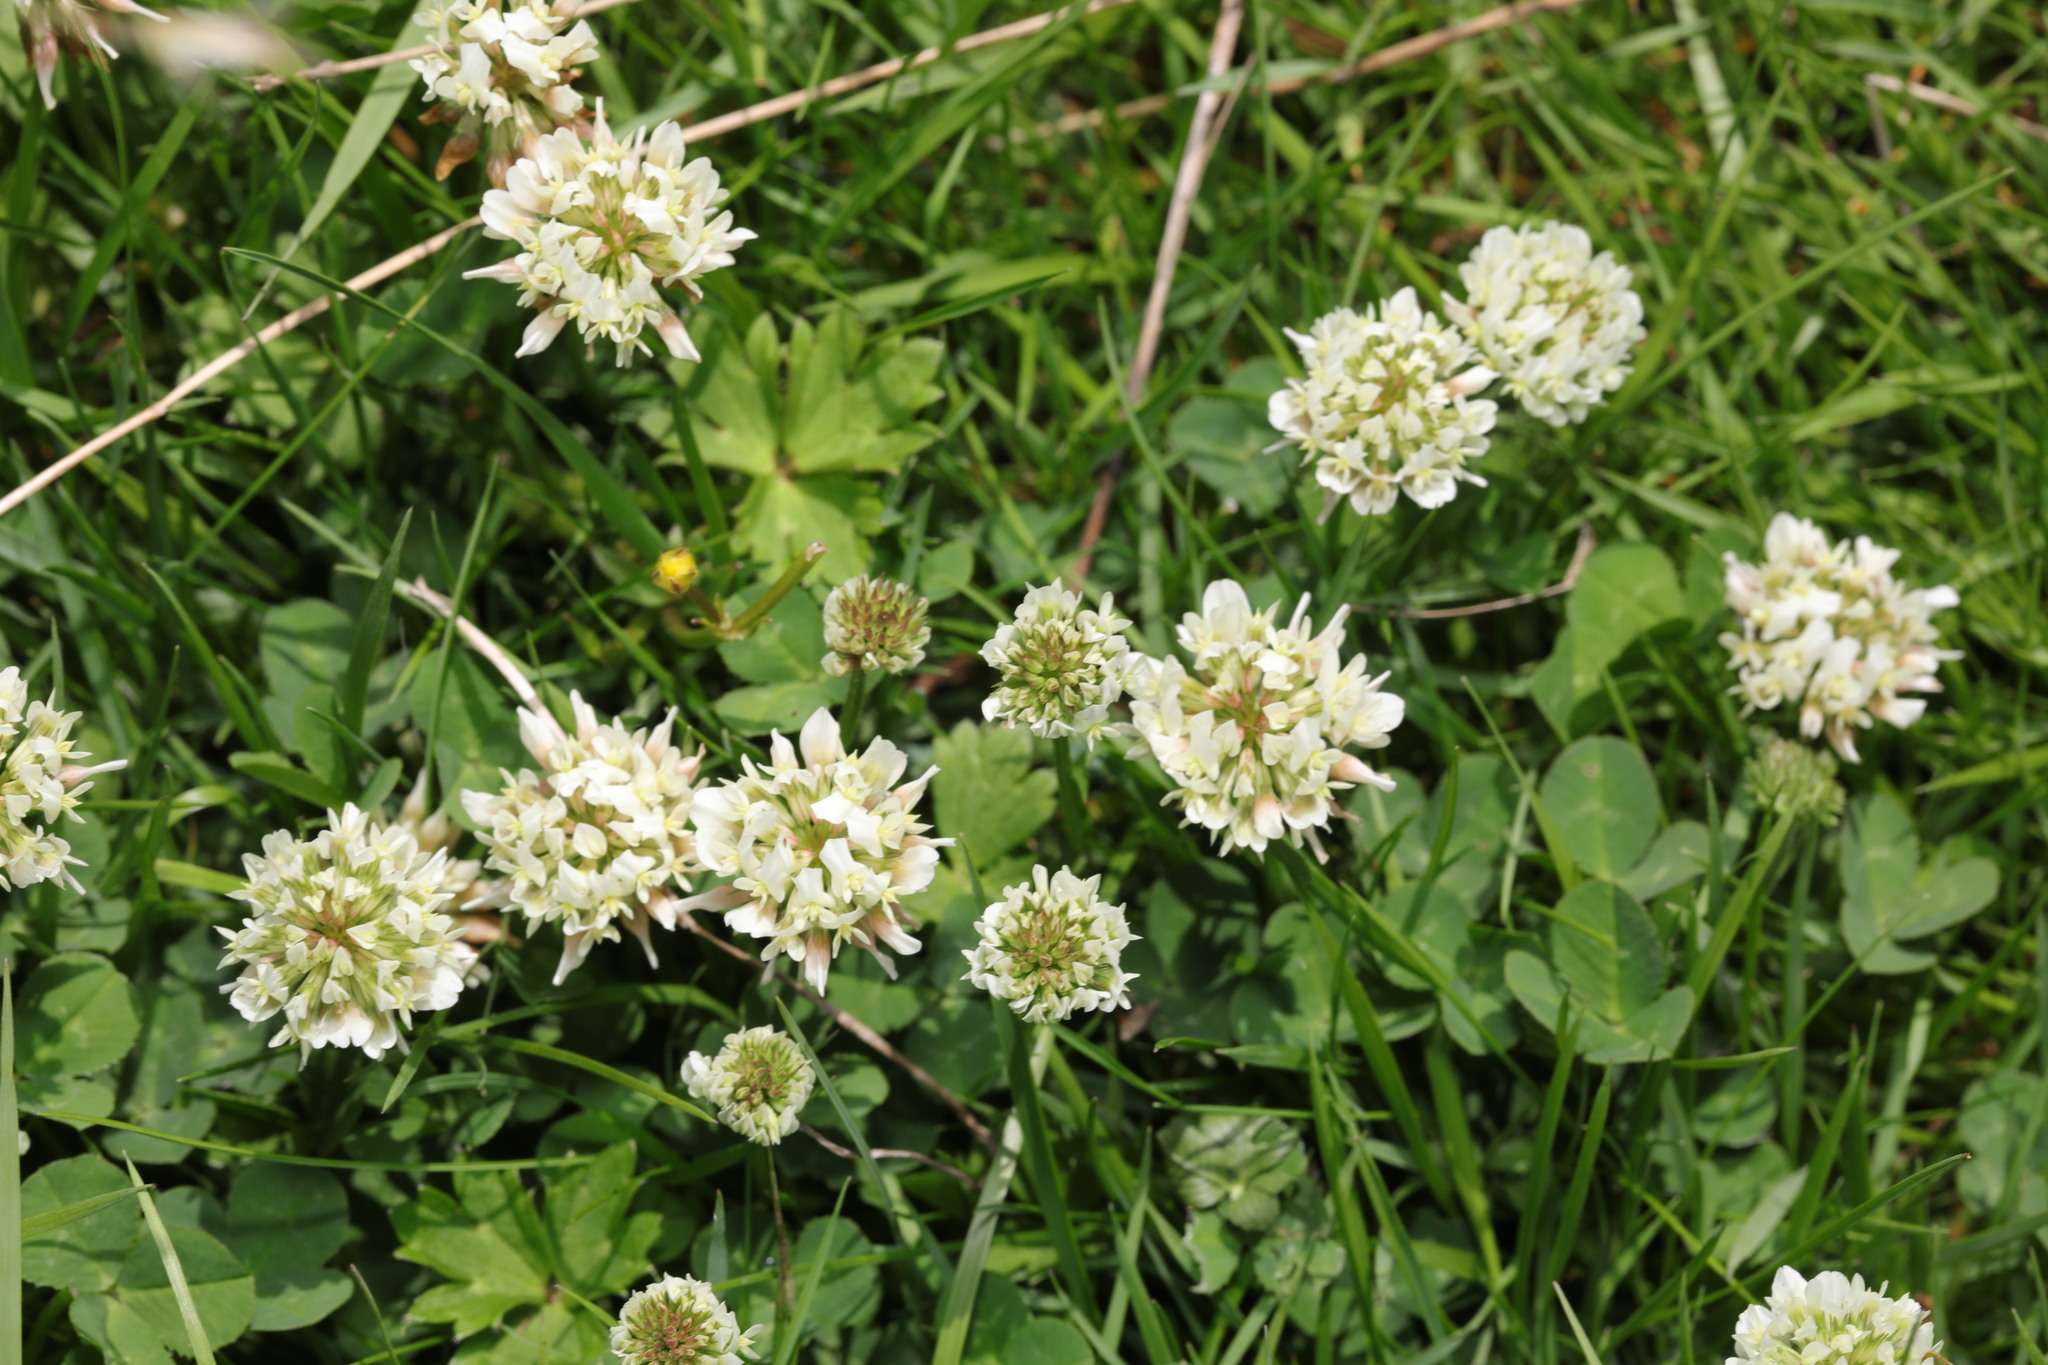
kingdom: Plantae
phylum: Tracheophyta
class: Magnoliopsida
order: Fabales
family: Fabaceae
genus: Trifolium
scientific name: Trifolium repens
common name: White clover
